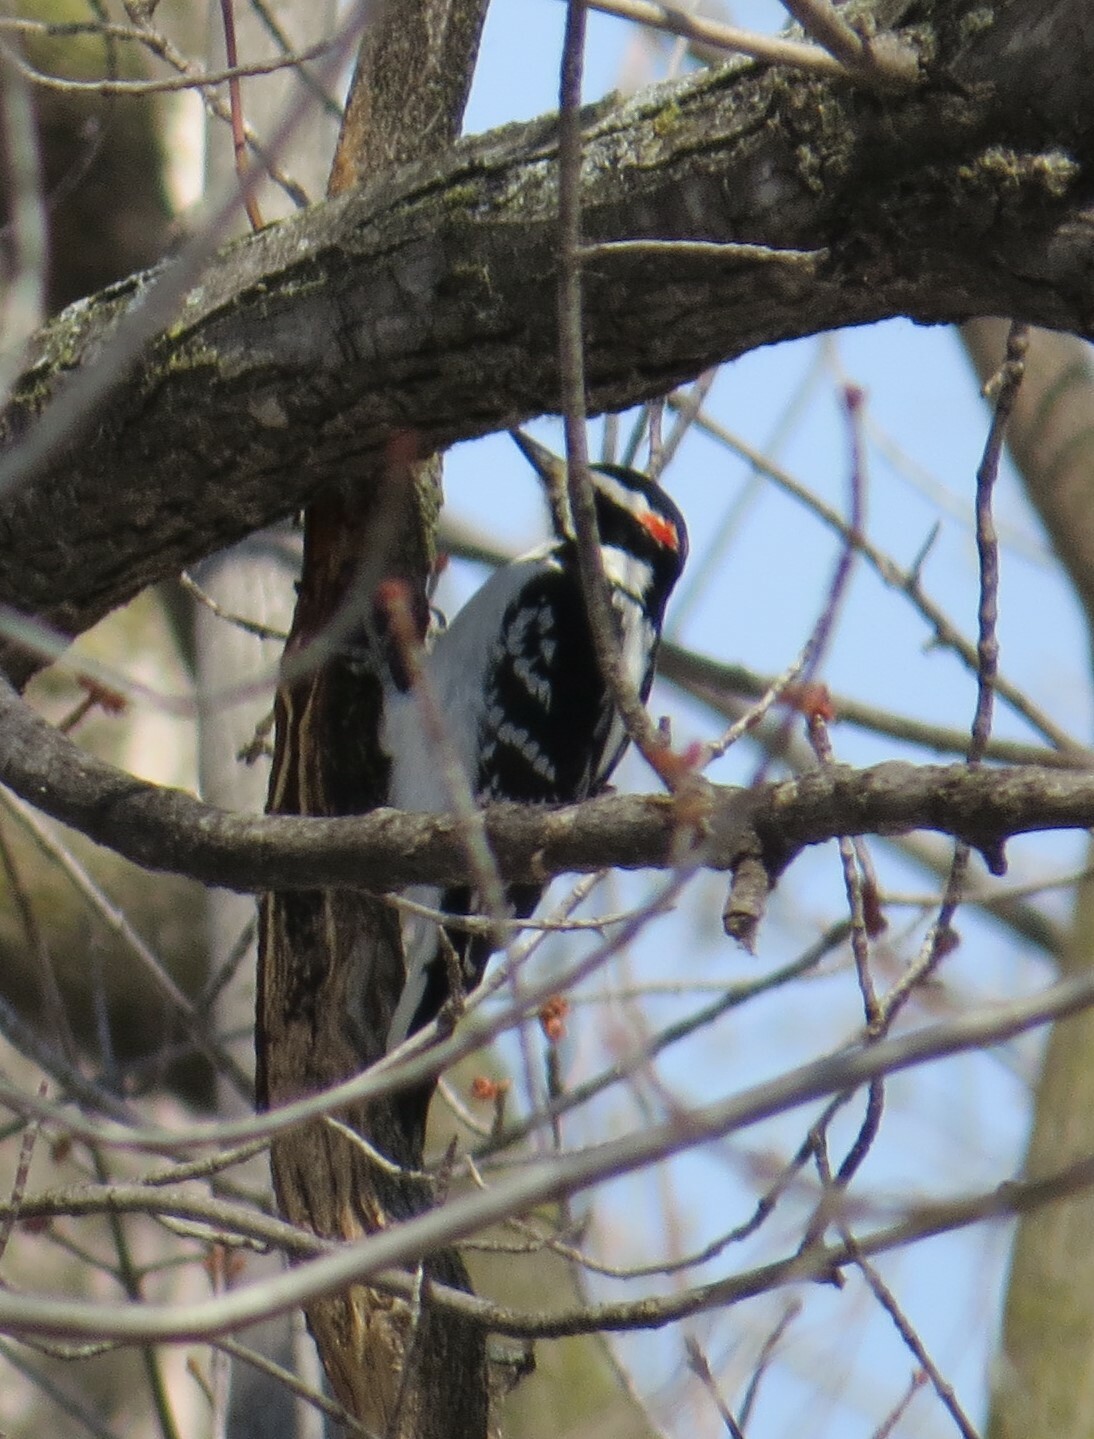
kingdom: Animalia
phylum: Chordata
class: Aves
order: Piciformes
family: Picidae
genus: Leuconotopicus
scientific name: Leuconotopicus villosus
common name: Hairy woodpecker
